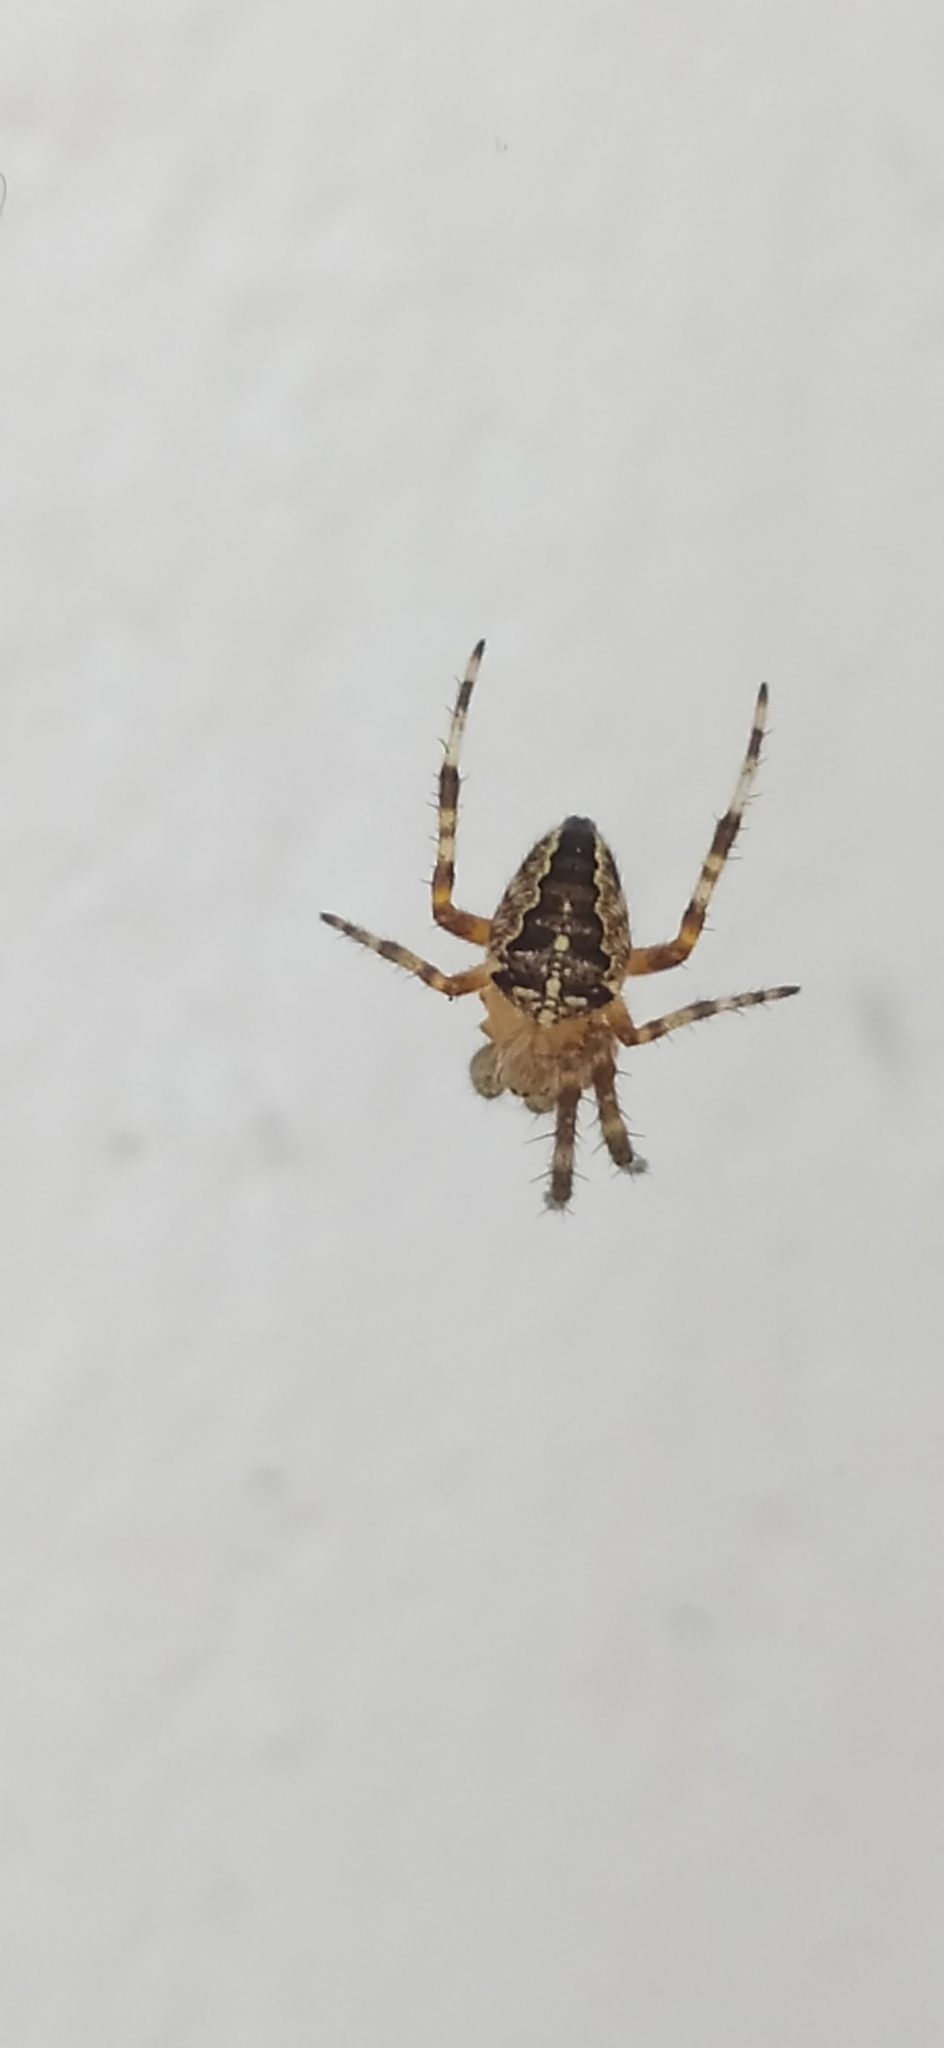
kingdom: Animalia
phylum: Arthropoda
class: Arachnida
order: Araneae
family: Araneidae
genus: Araneus
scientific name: Araneus diadematus
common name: Cross orbweaver
